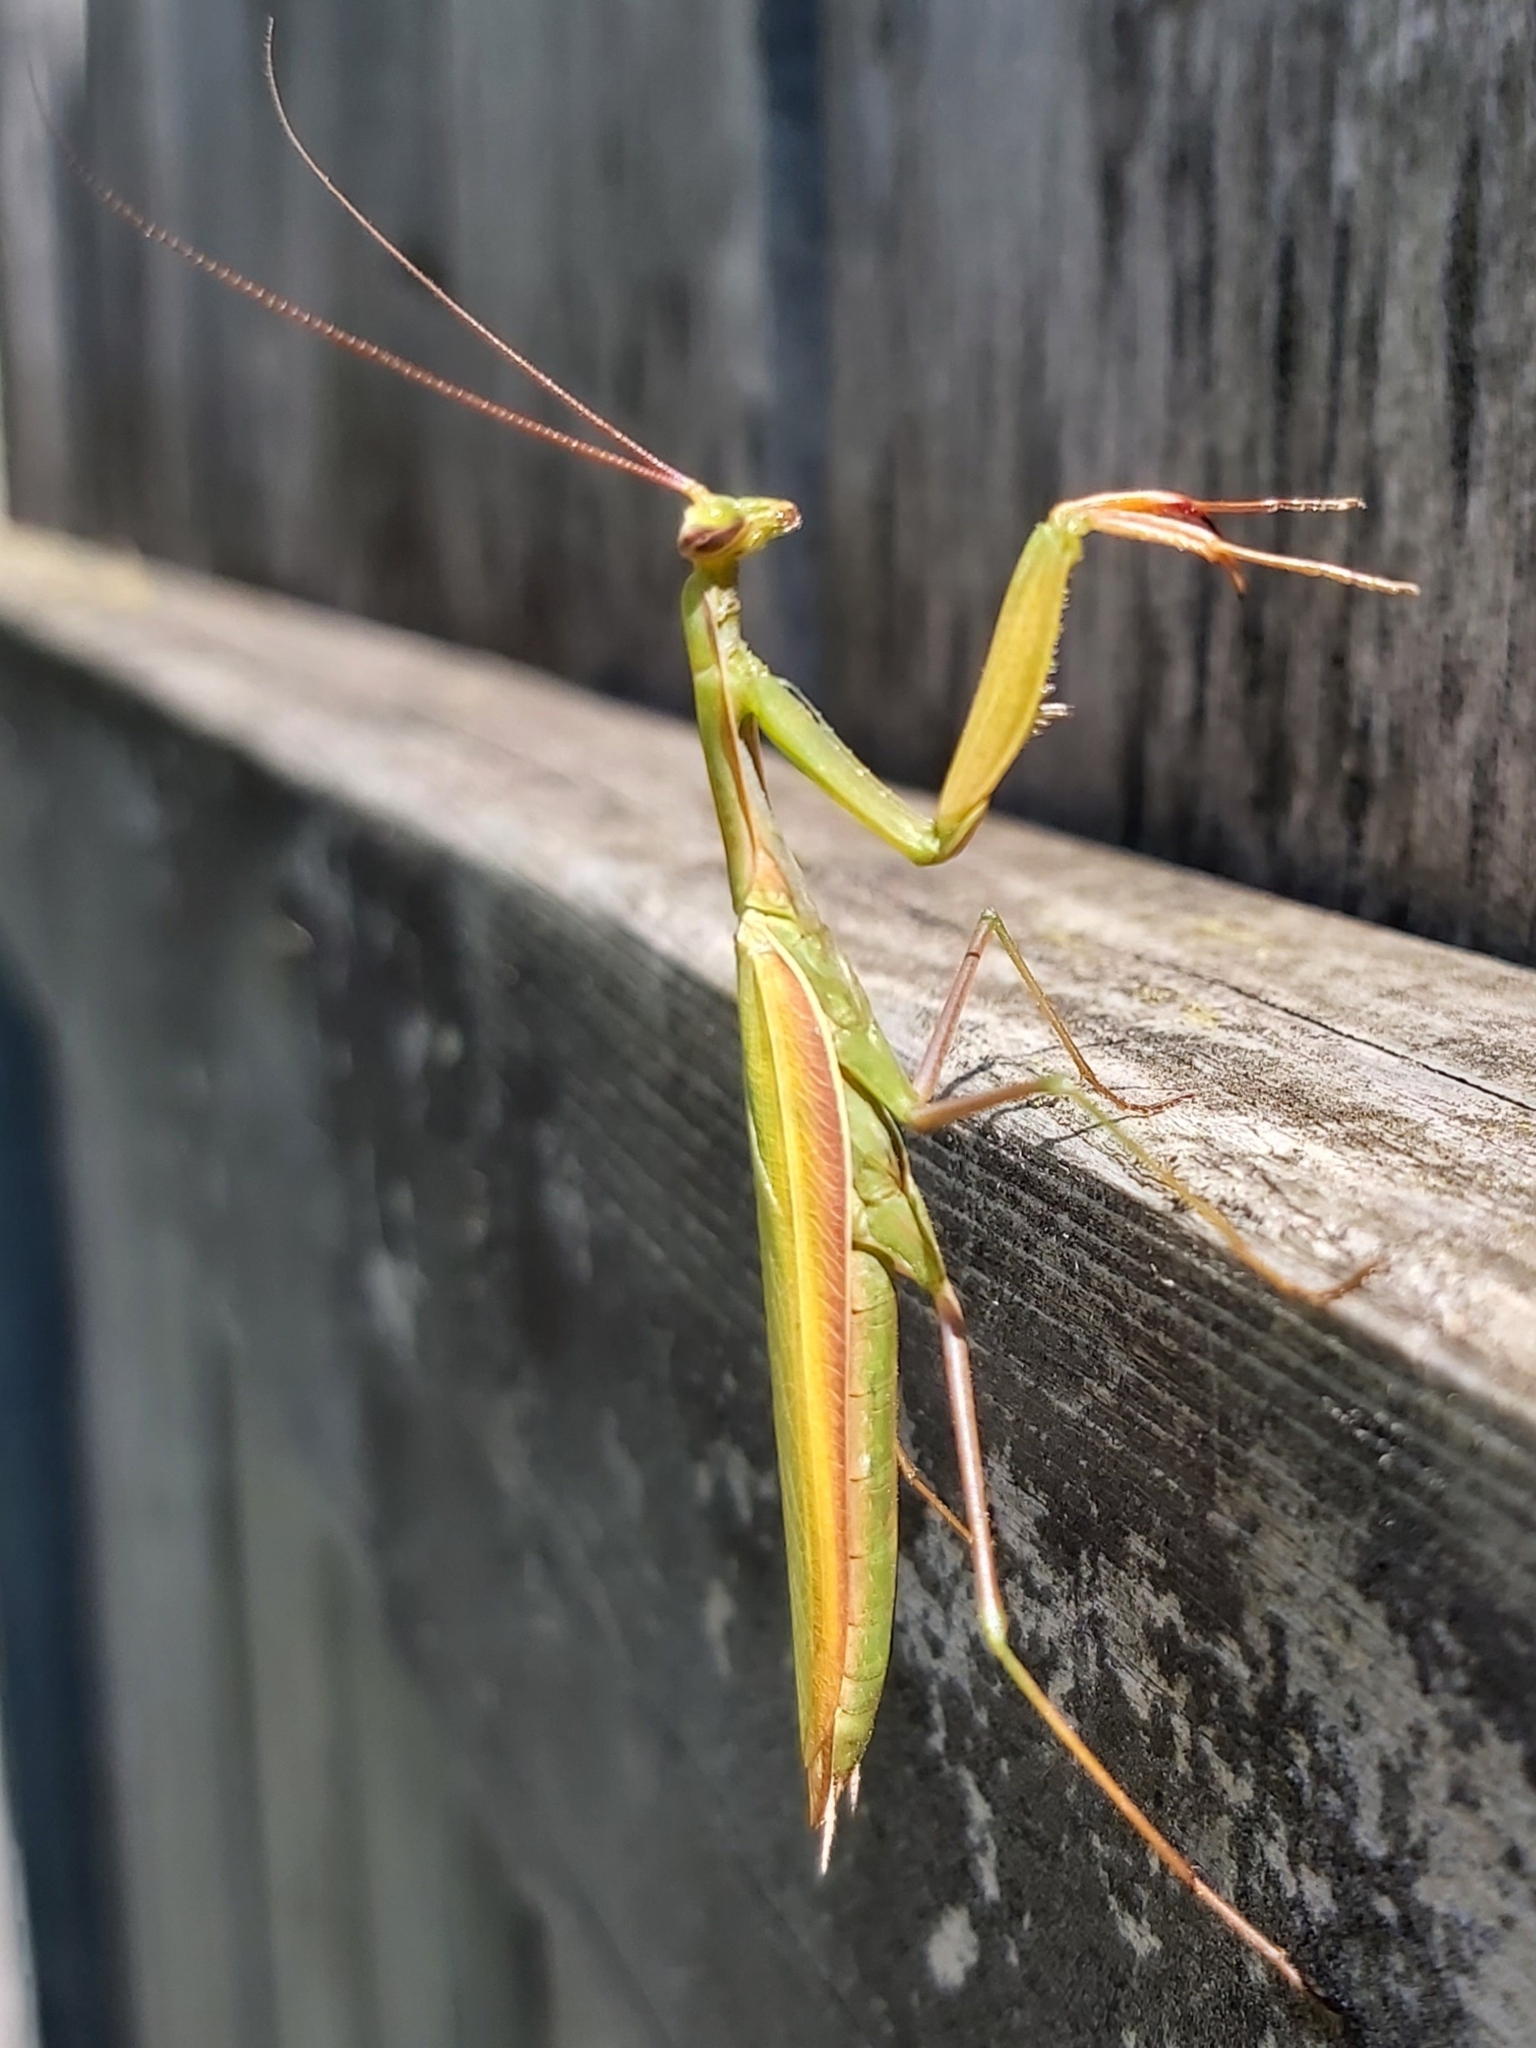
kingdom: Animalia
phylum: Arthropoda
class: Insecta
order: Mantodea
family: Mantidae
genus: Mantis
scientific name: Mantis religiosa
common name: Praying mantis
